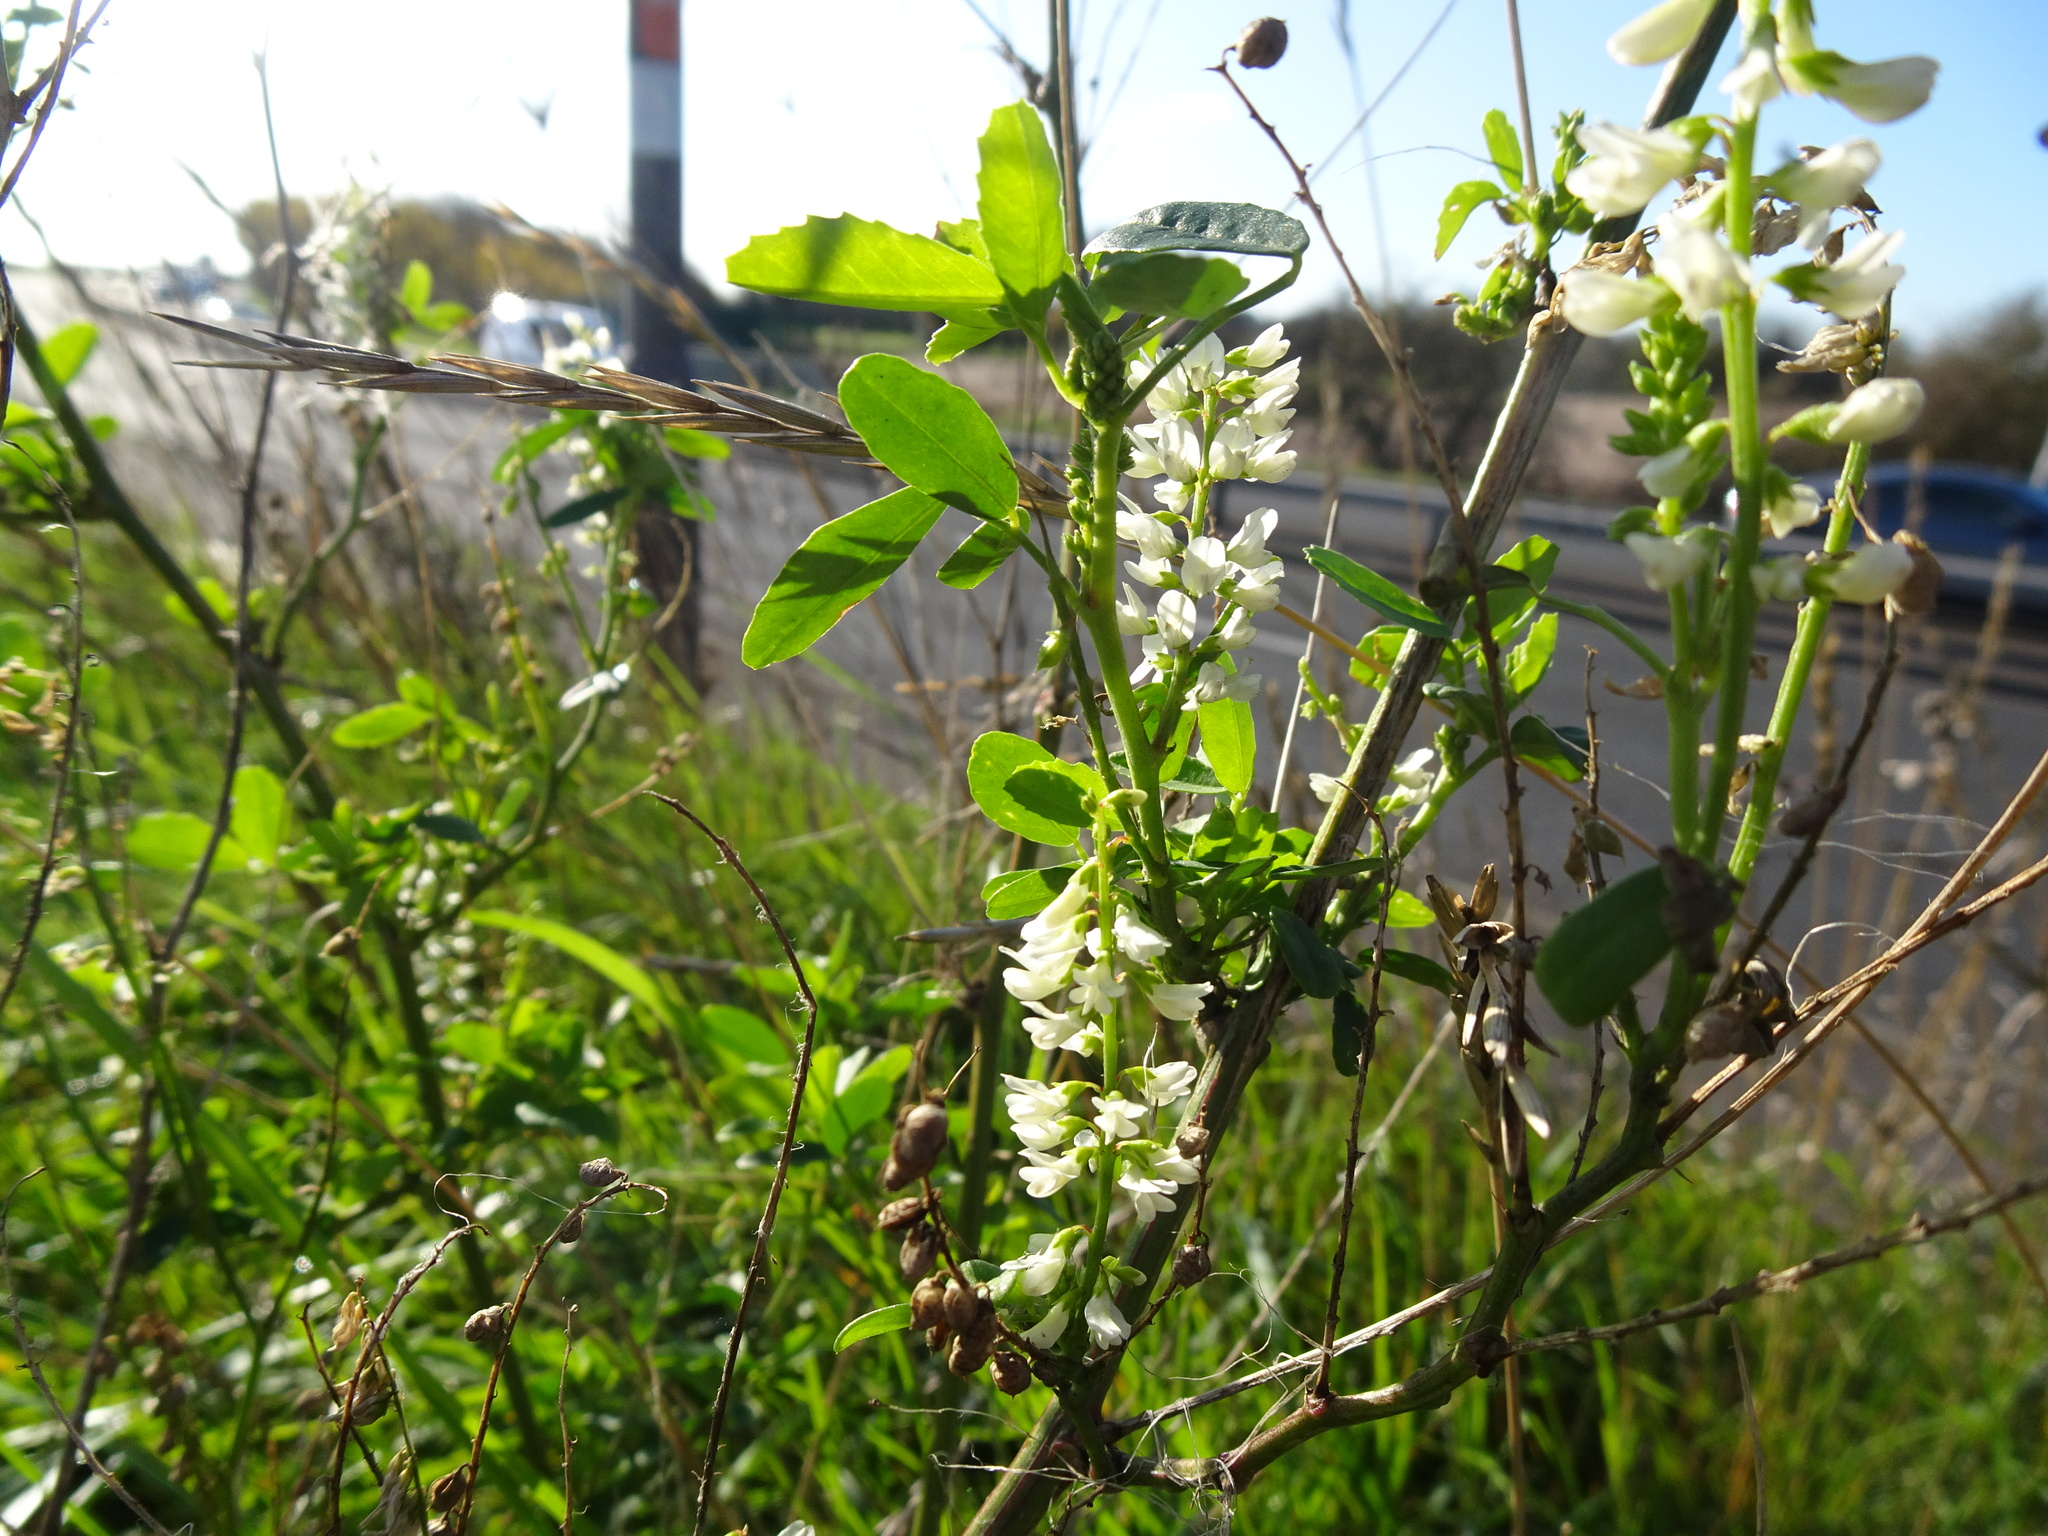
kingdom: Plantae
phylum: Tracheophyta
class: Magnoliopsida
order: Fabales
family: Fabaceae
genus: Melilotus
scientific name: Melilotus albus
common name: White melilot
